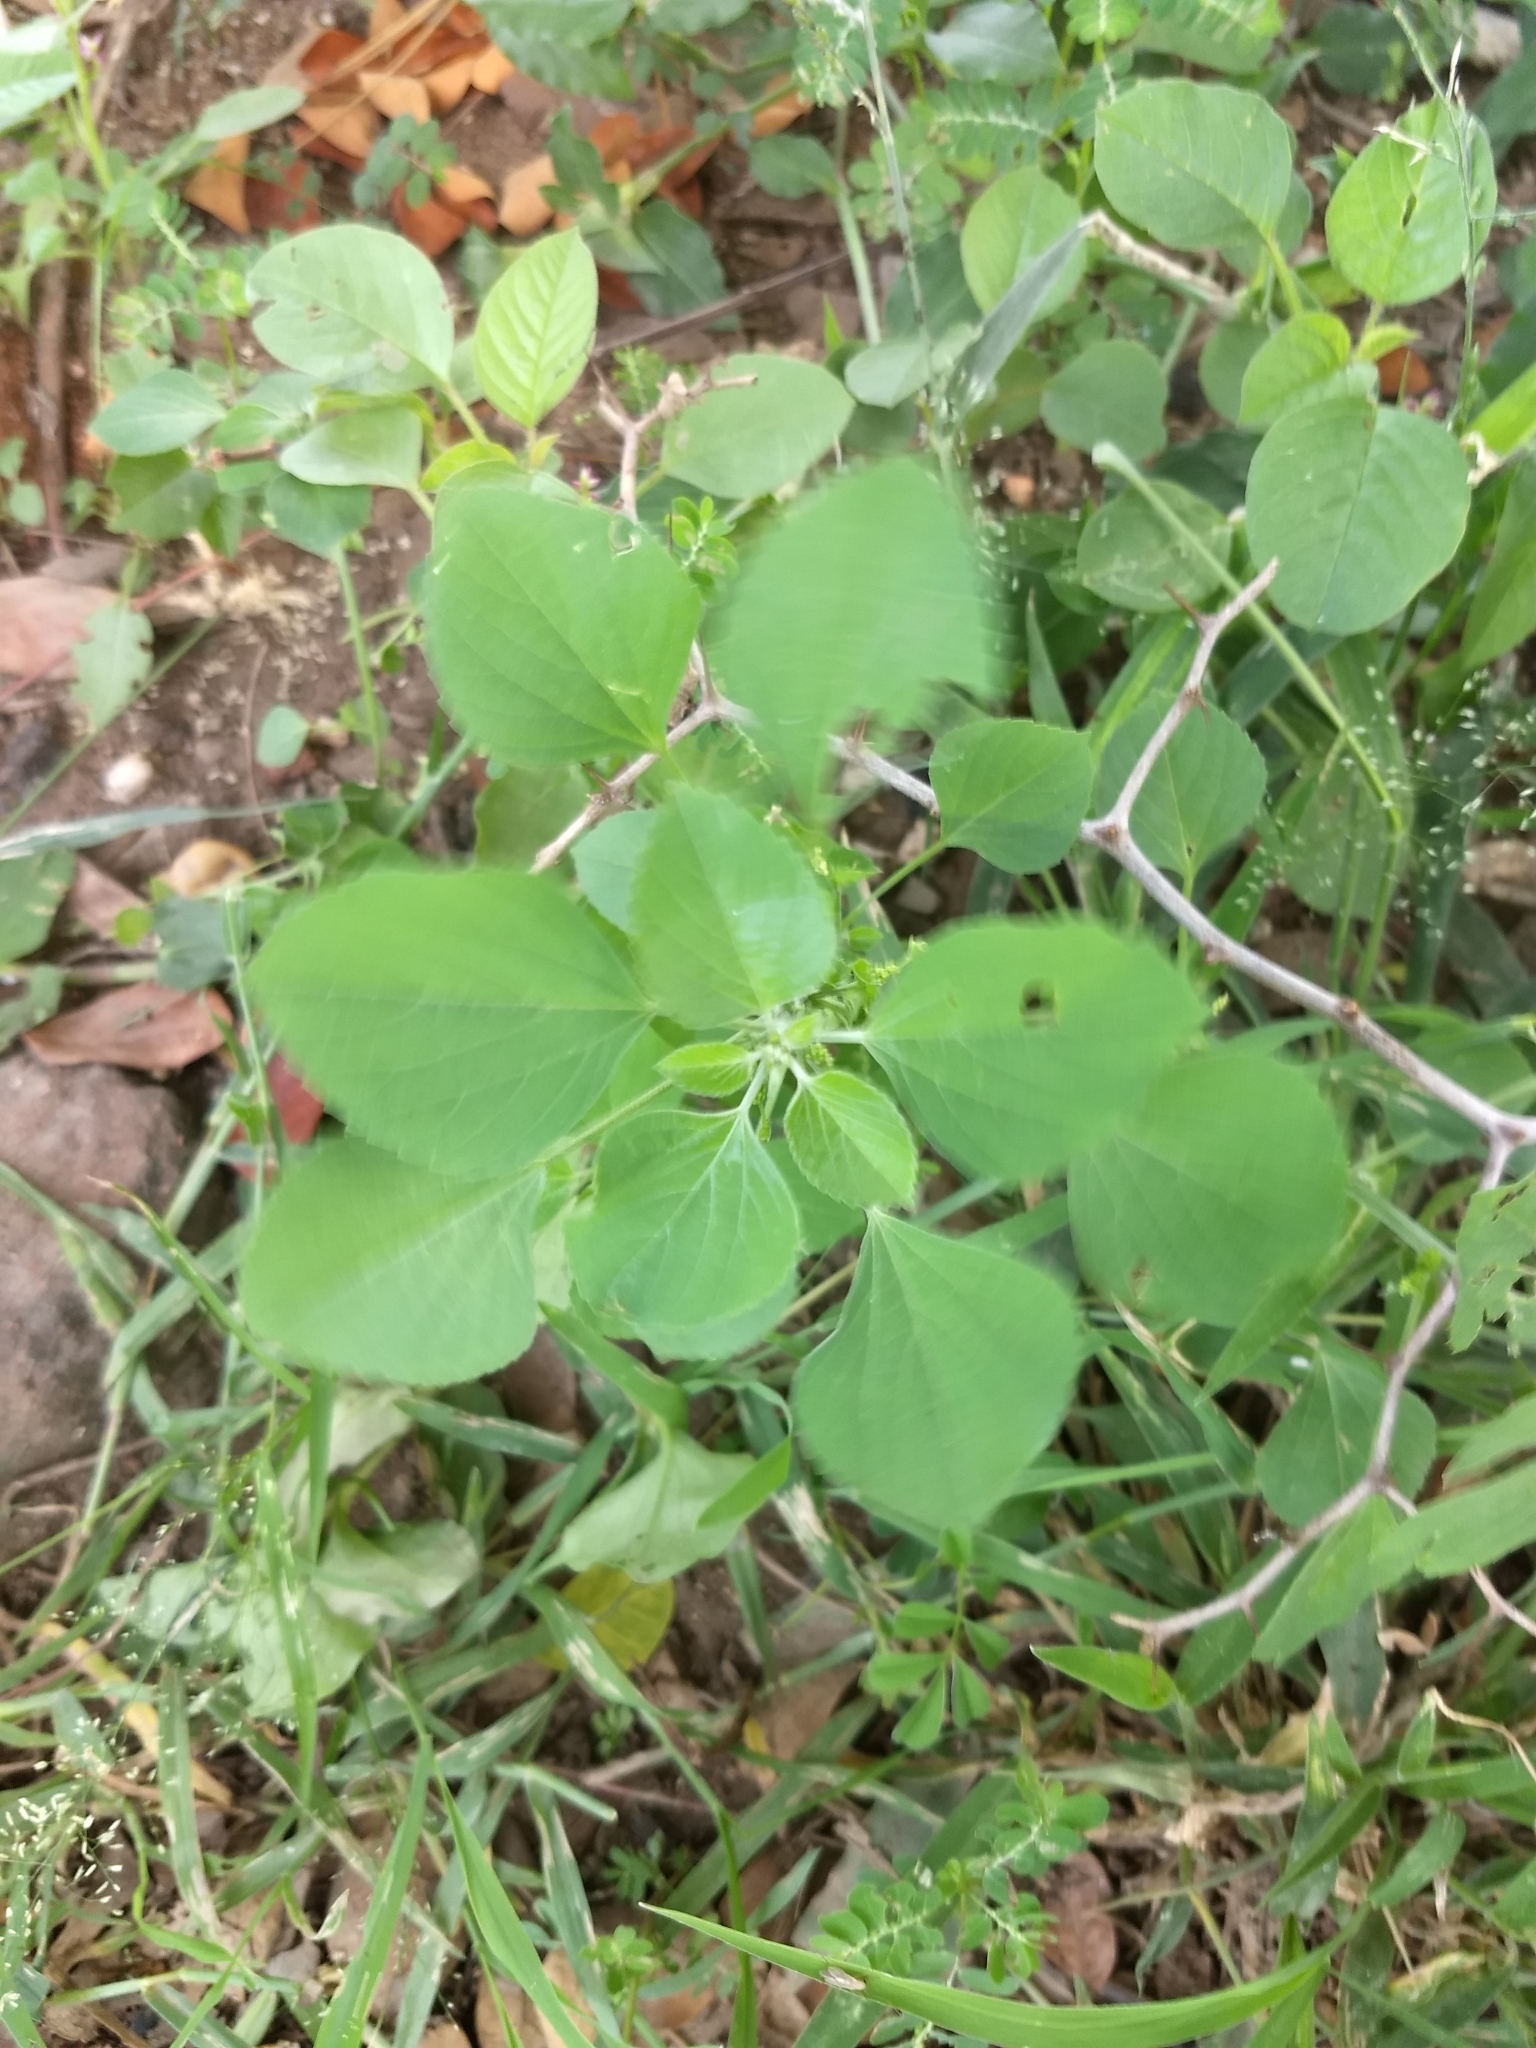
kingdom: Plantae
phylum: Tracheophyta
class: Magnoliopsida
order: Malpighiales
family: Euphorbiaceae
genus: Acalypha
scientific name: Acalypha indica
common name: Indian acalypha
